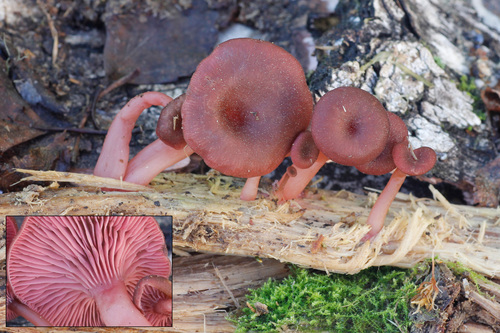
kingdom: Fungi
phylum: Basidiomycota
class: Agaricomycetes
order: Agaricales
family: Hygrophoraceae
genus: Arrhenia
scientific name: Arrhenia discorosea
